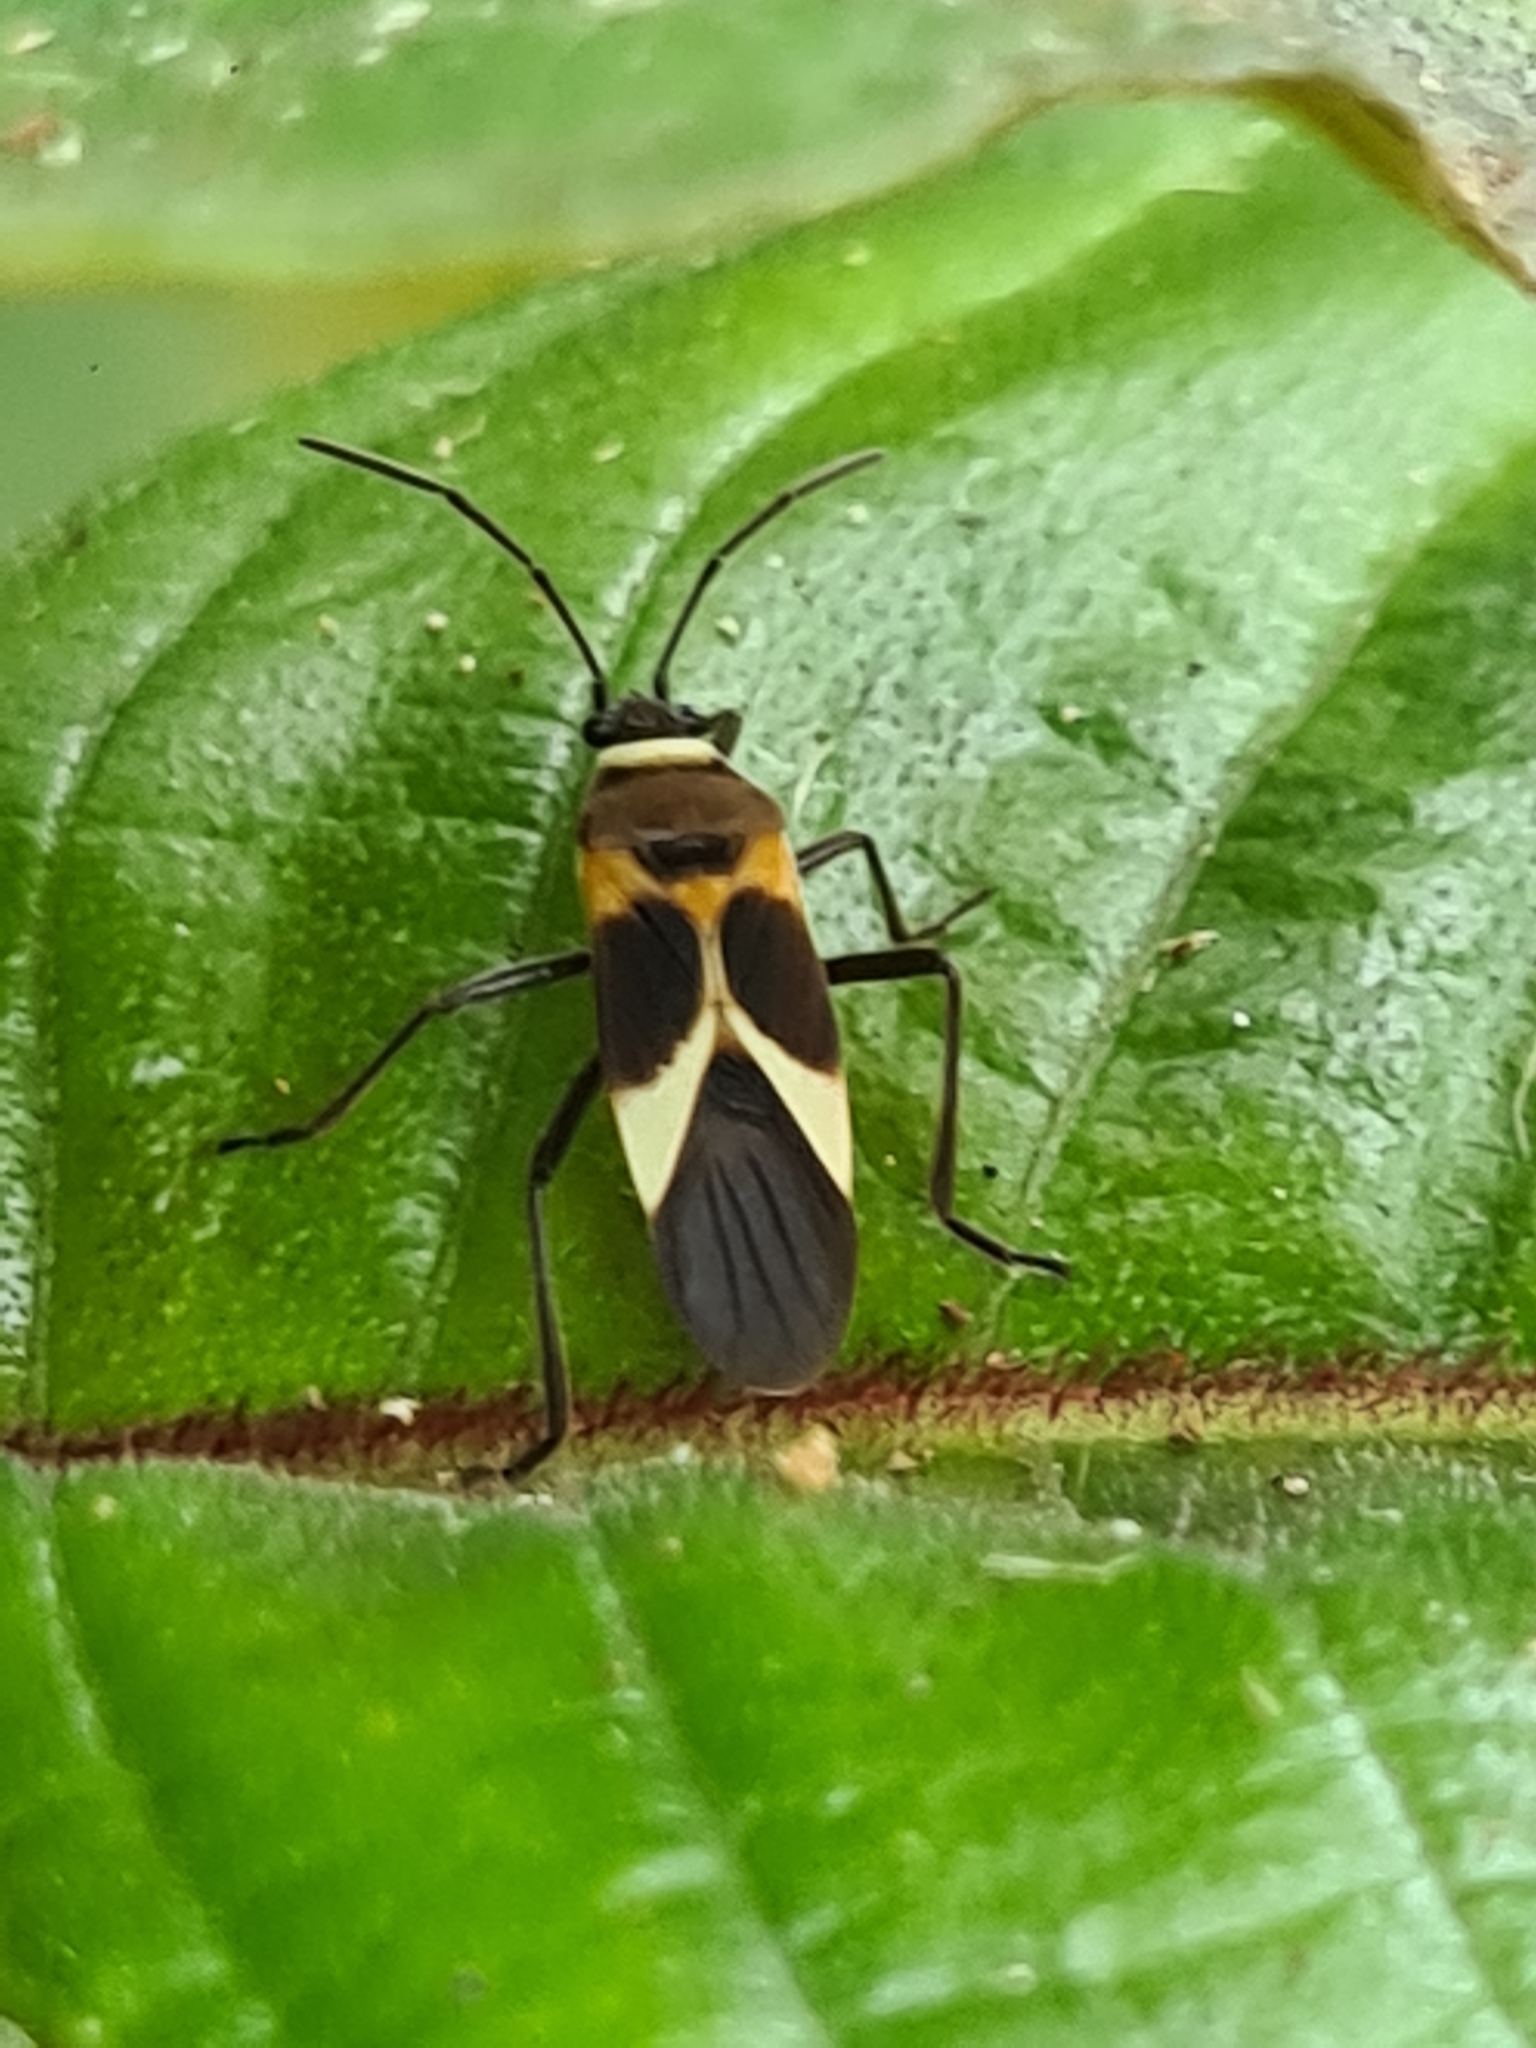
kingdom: Animalia
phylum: Arthropoda
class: Insecta
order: Hemiptera
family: Lygaeidae
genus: Craspeduchus
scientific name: Craspeduchus variegatus
